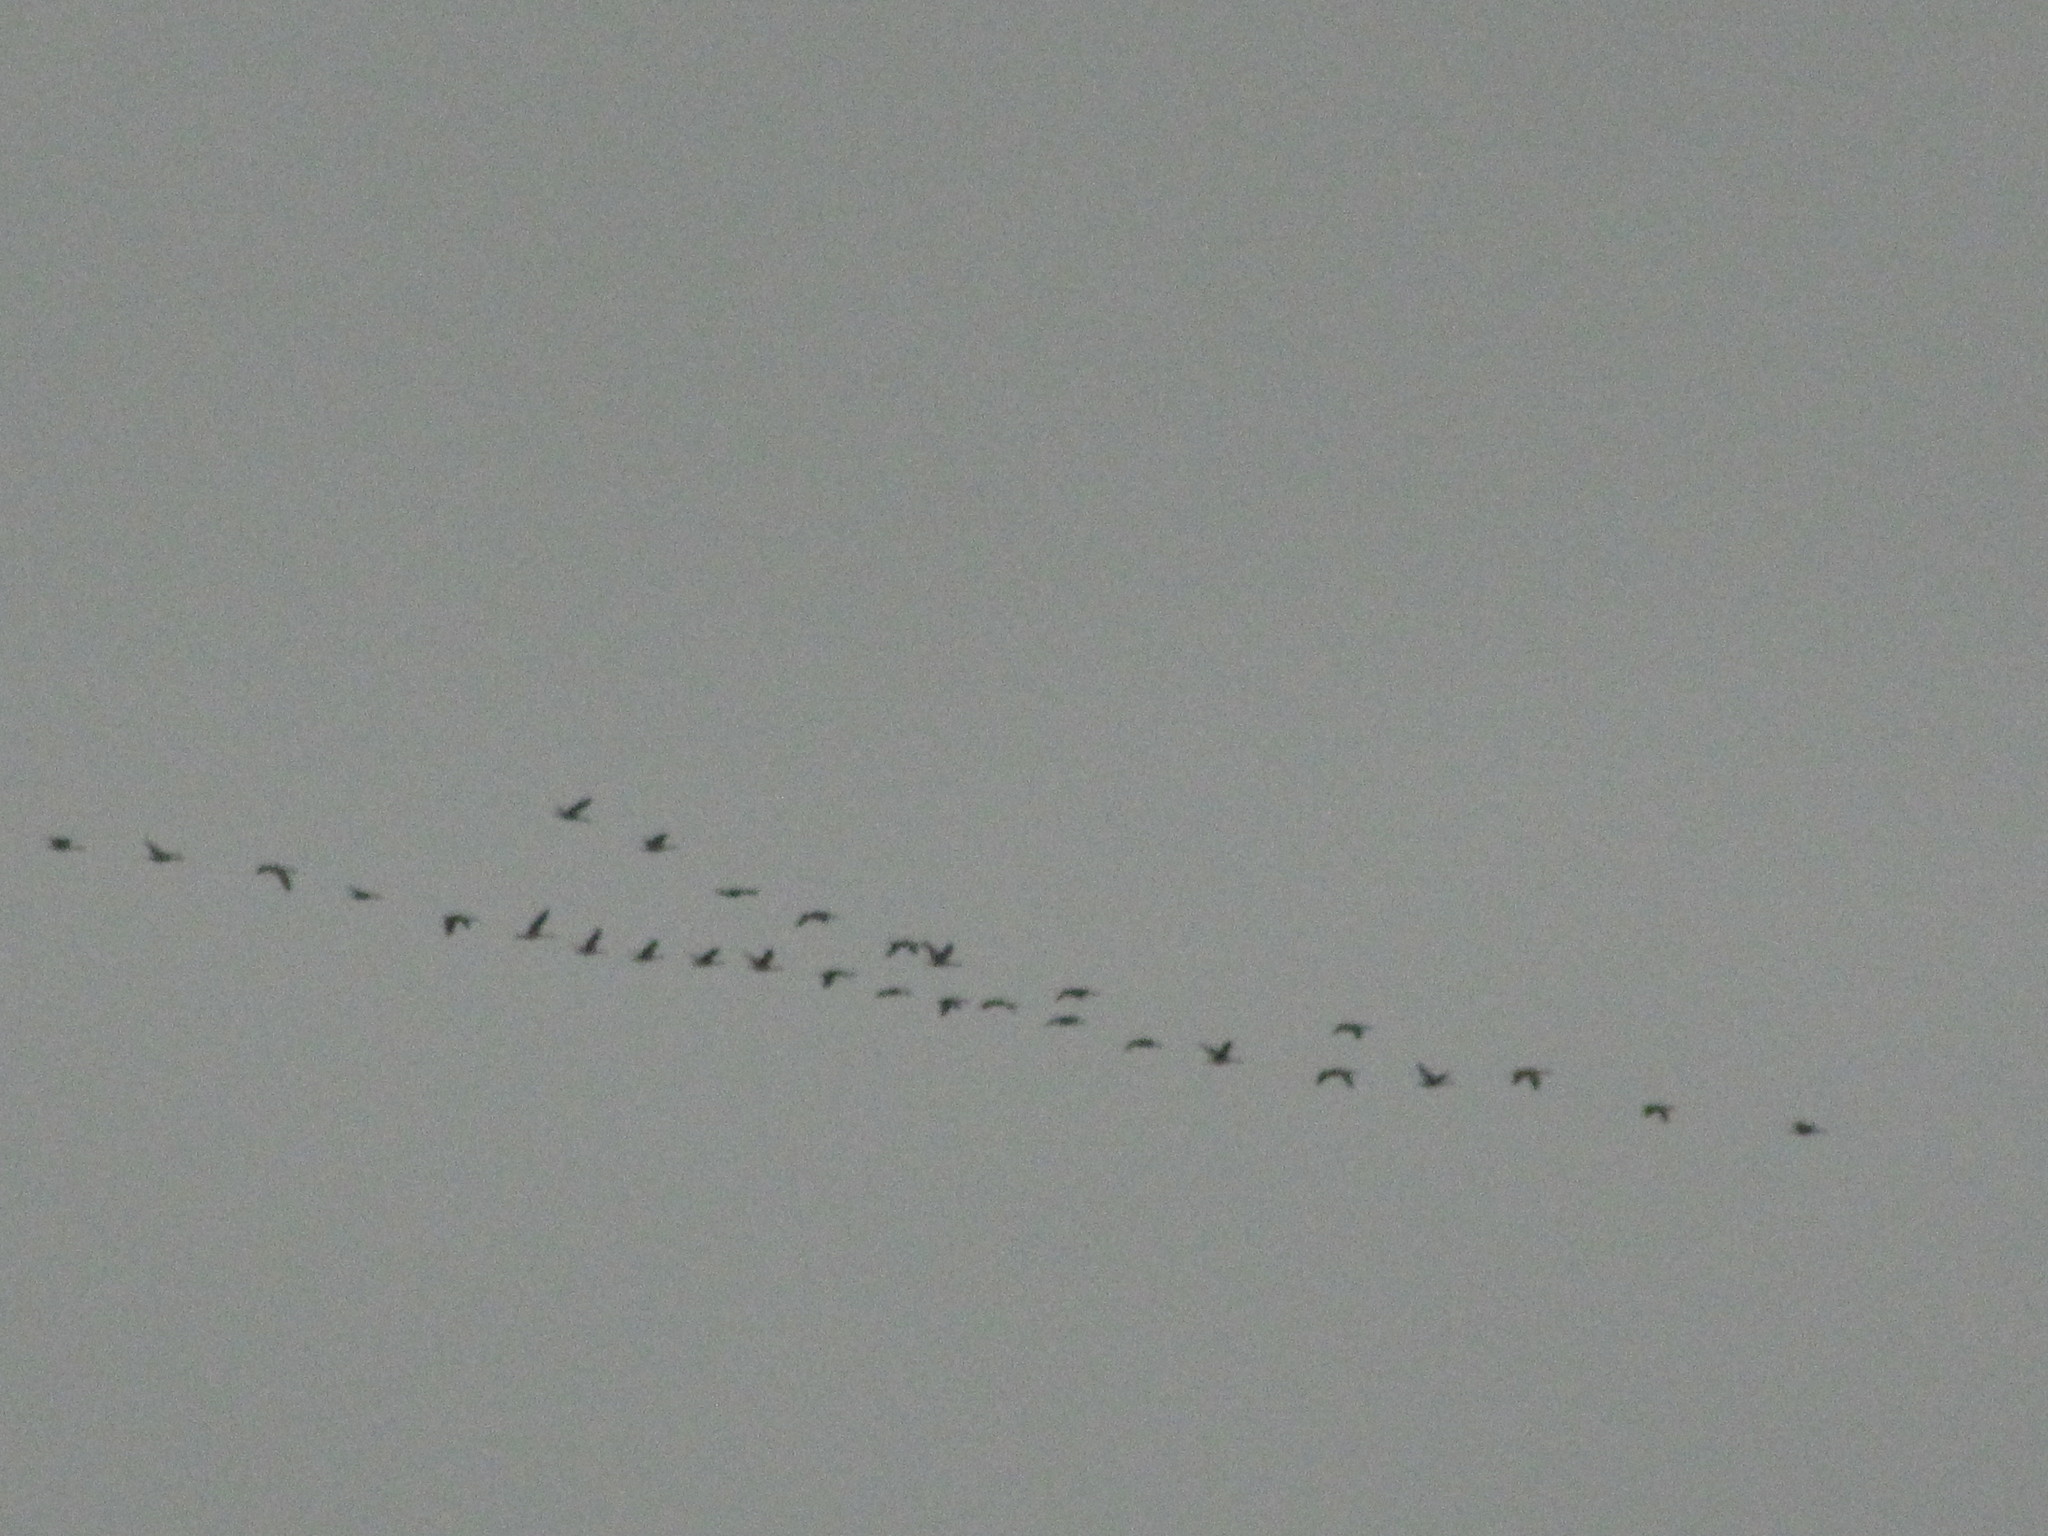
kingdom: Animalia
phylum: Chordata
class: Aves
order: Anseriformes
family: Anatidae
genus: Branta
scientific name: Branta canadensis
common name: Canada goose
